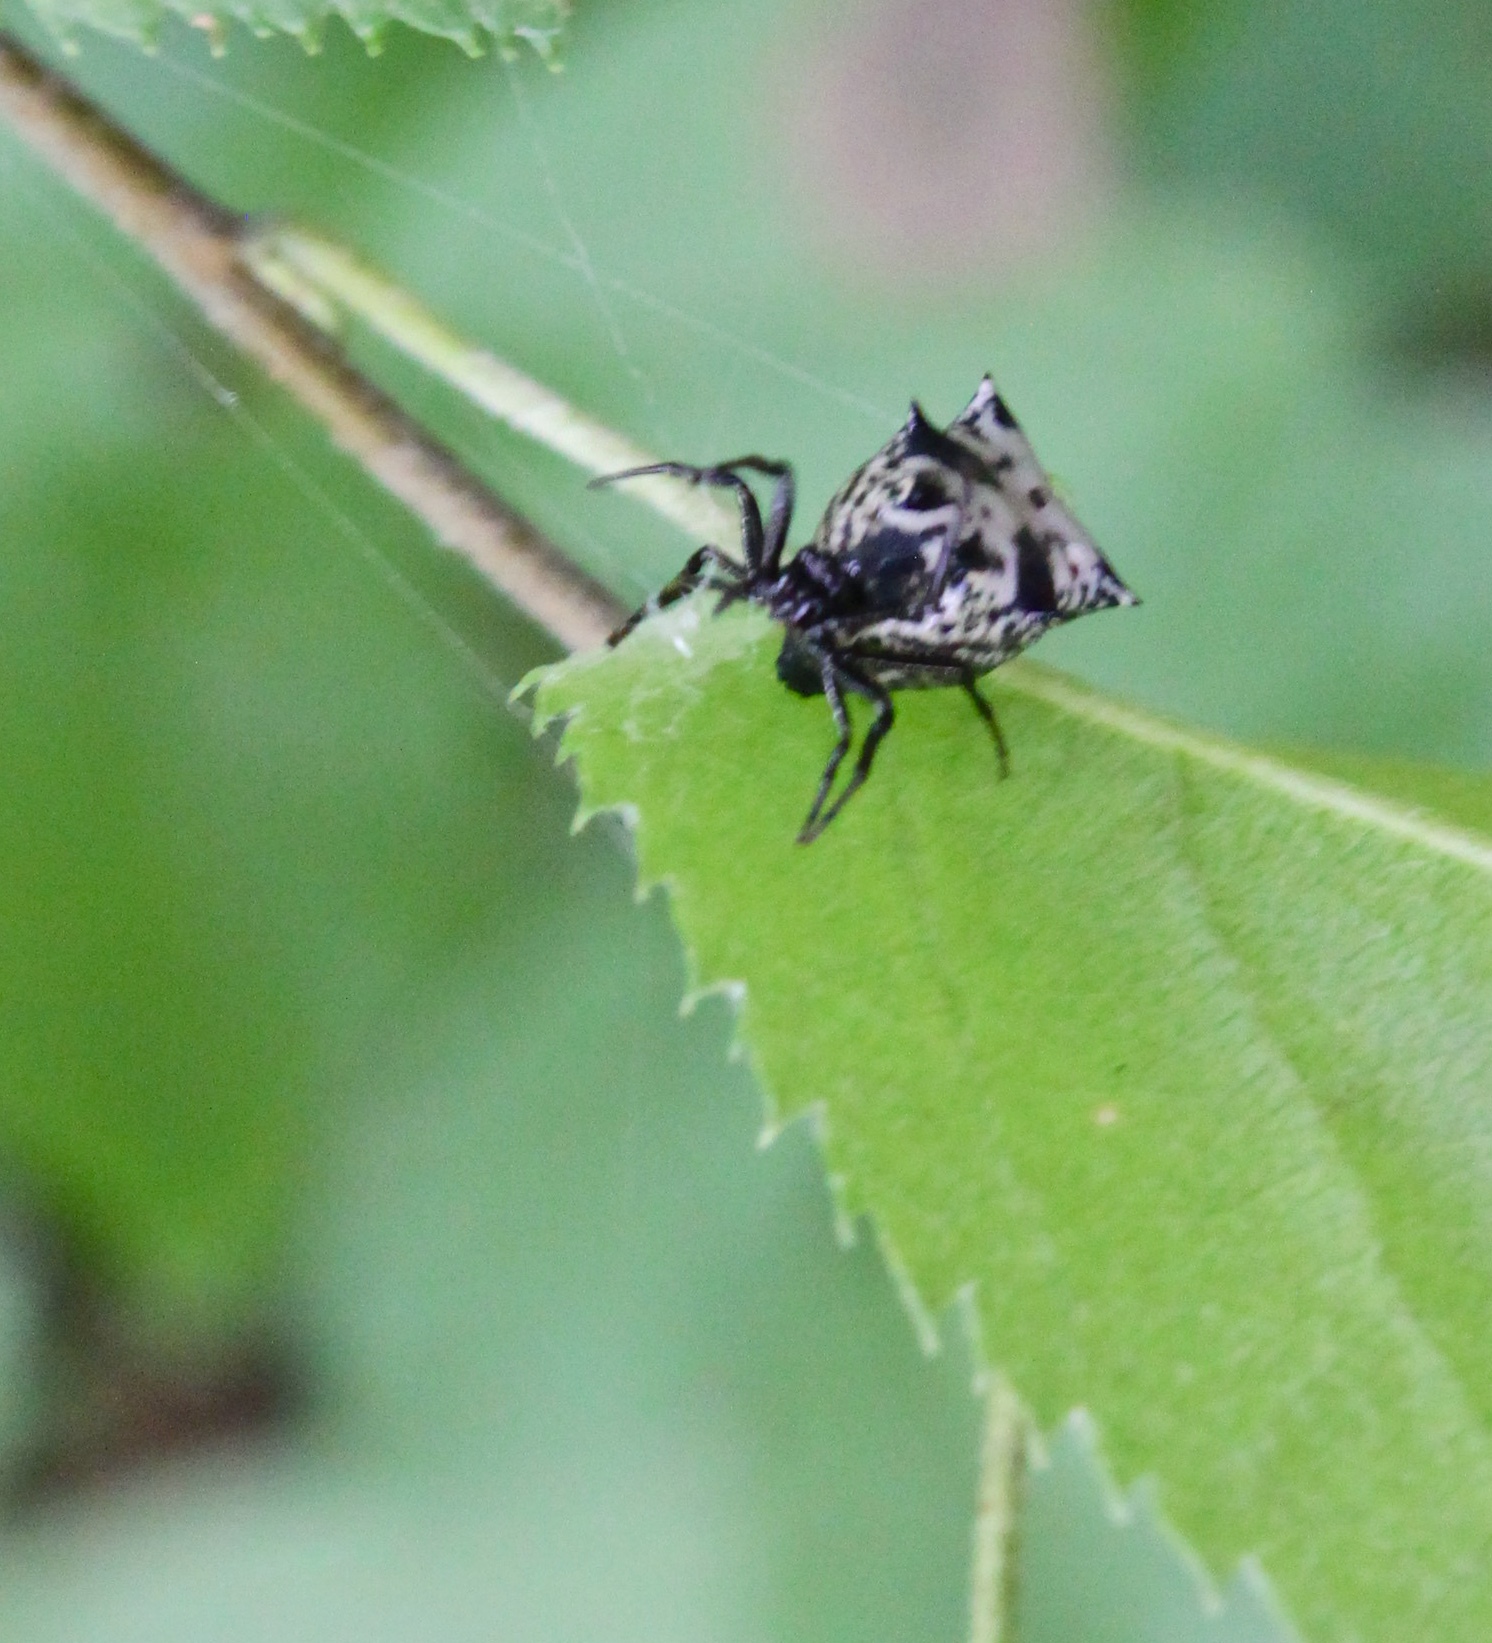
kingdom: Animalia
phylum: Arthropoda
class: Arachnida
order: Araneae
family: Araneidae
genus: Micrathena
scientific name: Micrathena gracilis
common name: Orb weavers
